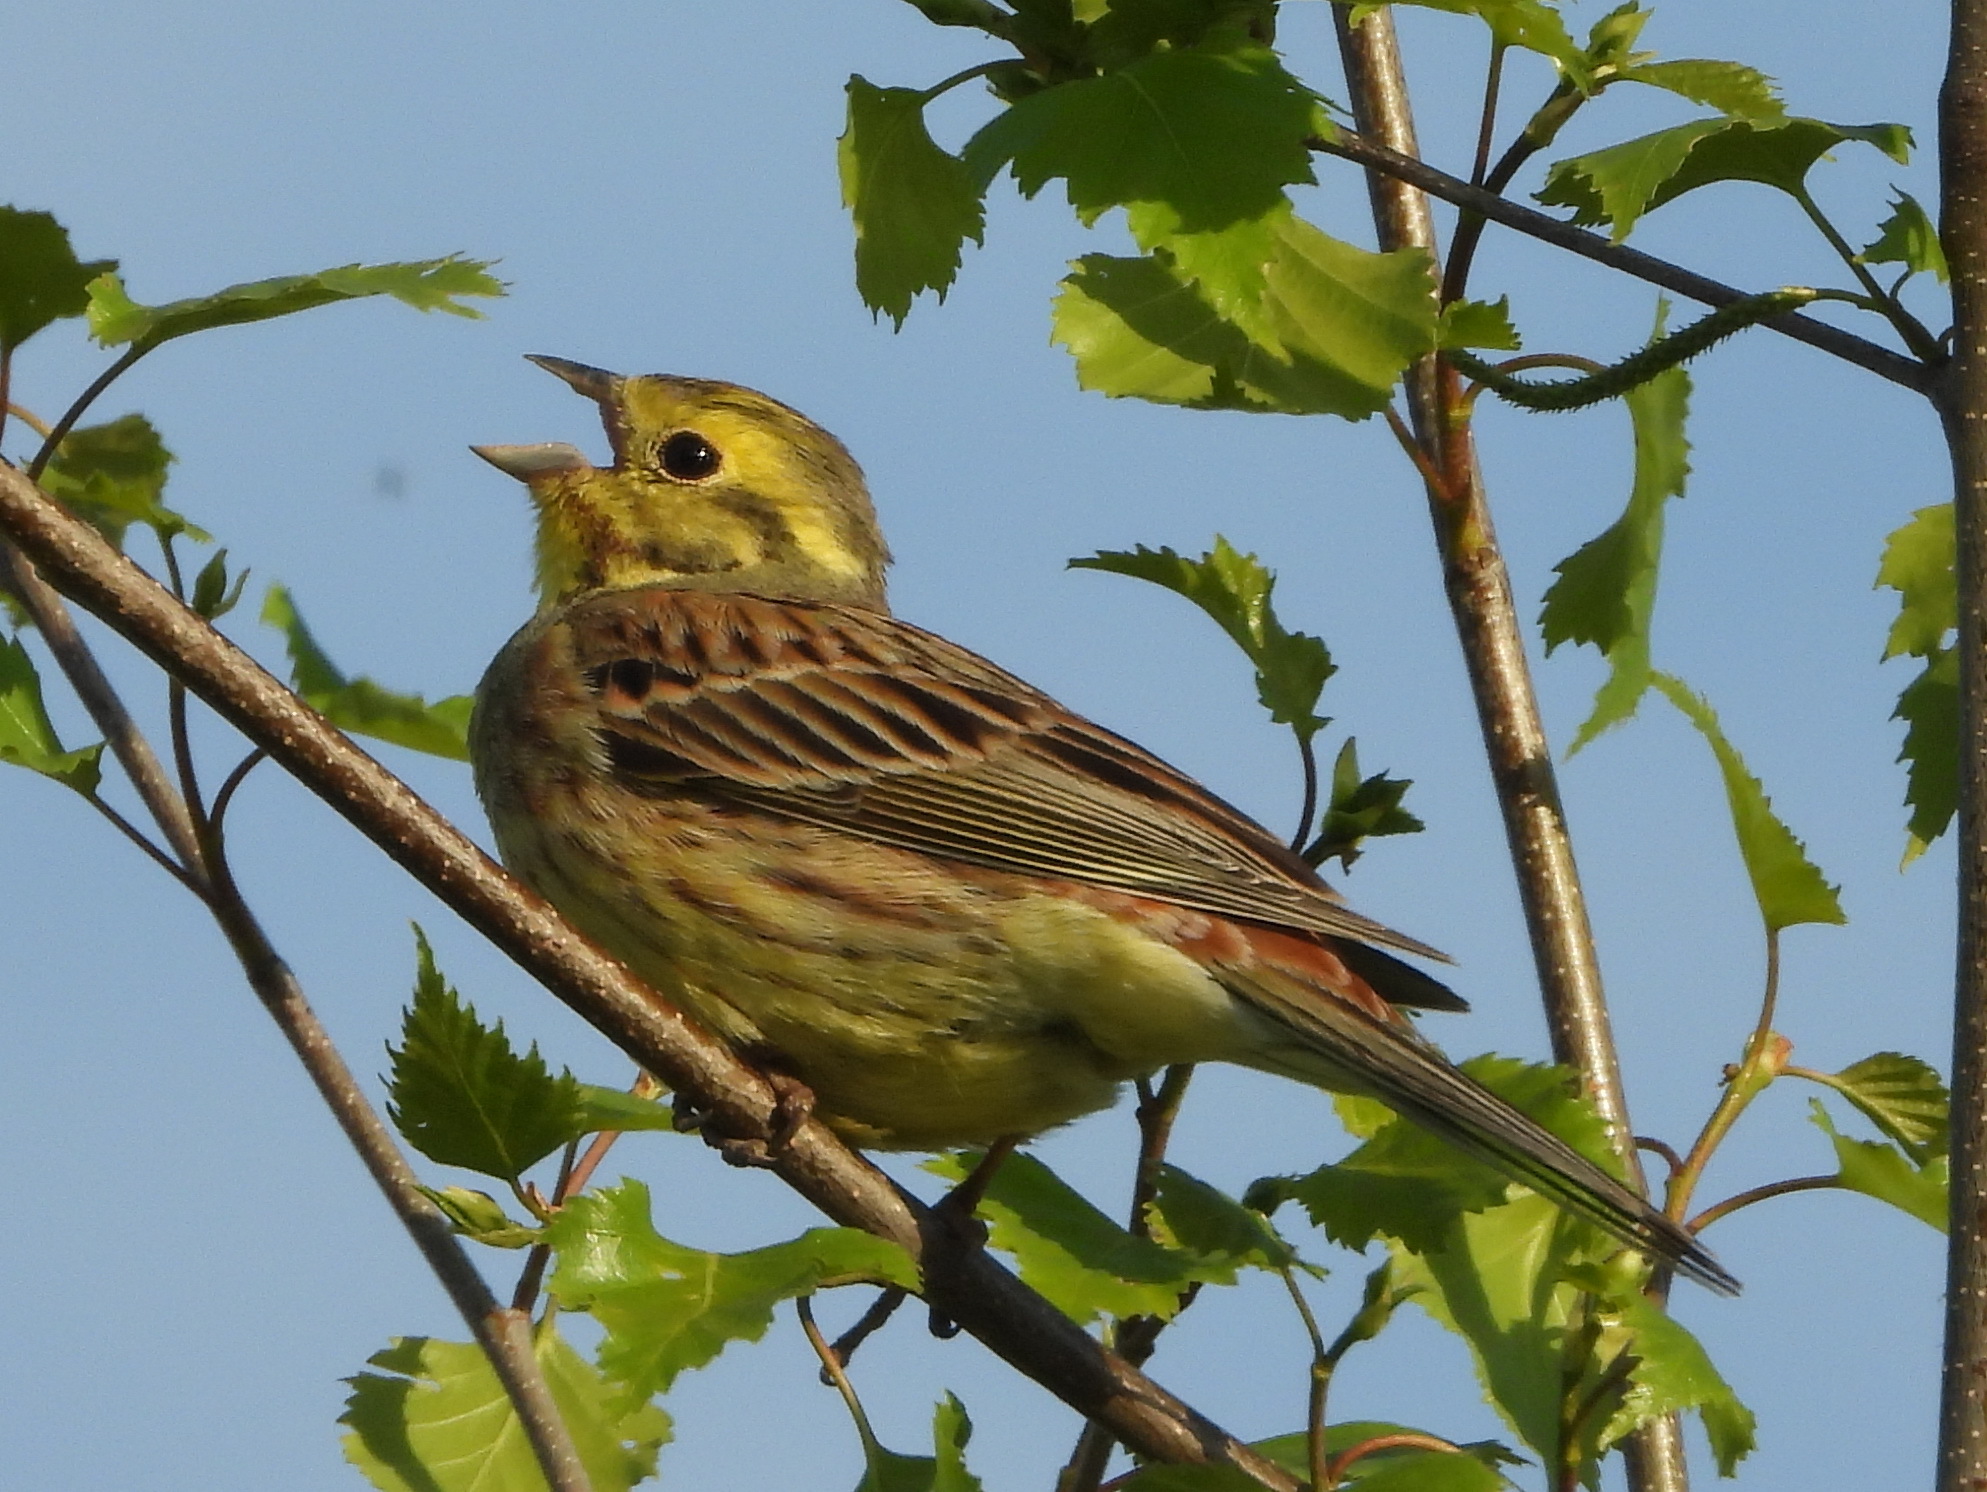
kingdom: Animalia
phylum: Chordata
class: Aves
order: Passeriformes
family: Emberizidae
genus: Emberiza
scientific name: Emberiza citrinella
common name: Yellowhammer
